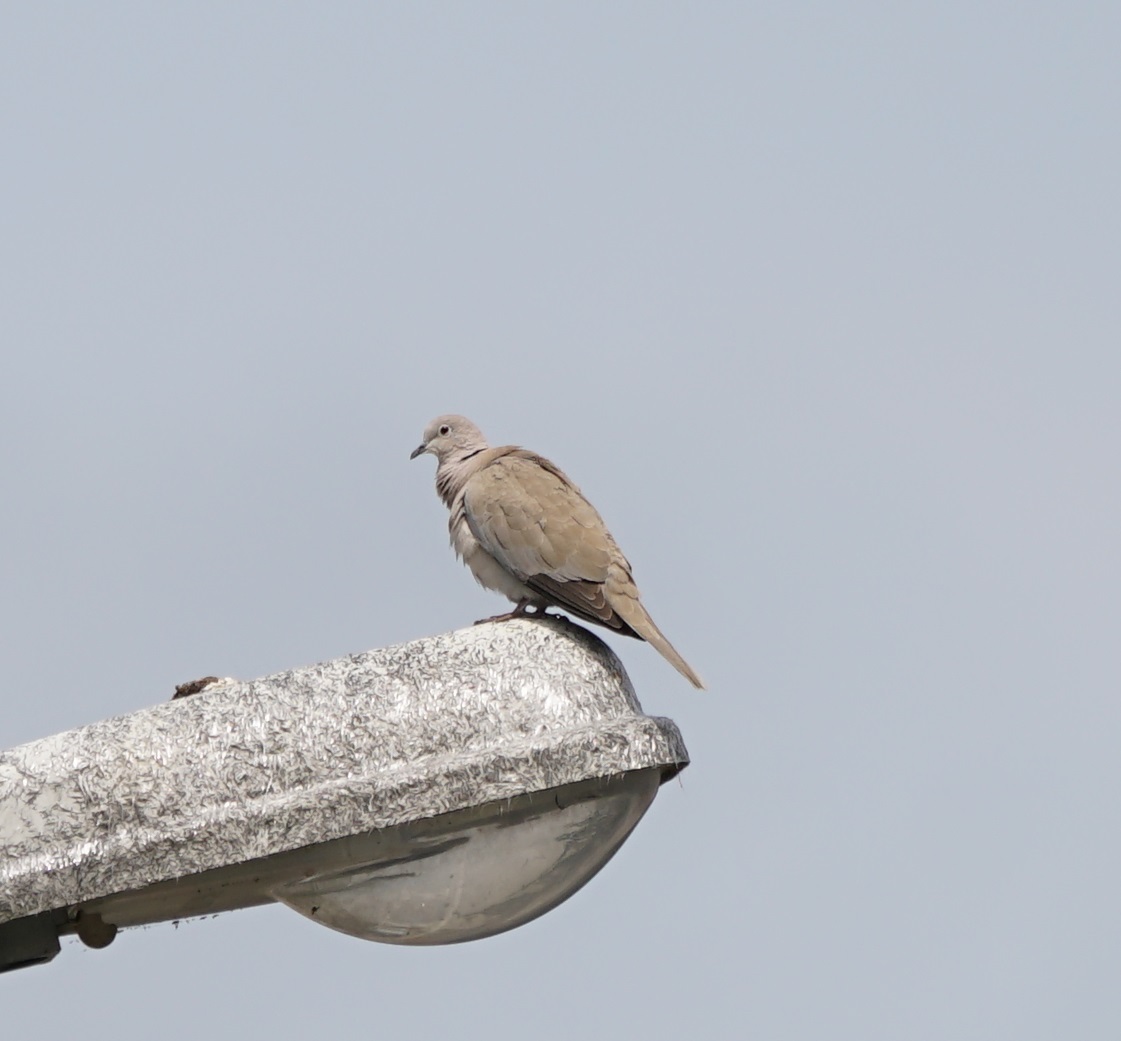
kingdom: Animalia
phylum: Chordata
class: Aves
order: Columbiformes
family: Columbidae
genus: Streptopelia
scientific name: Streptopelia decaocto
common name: Eurasian collared dove
